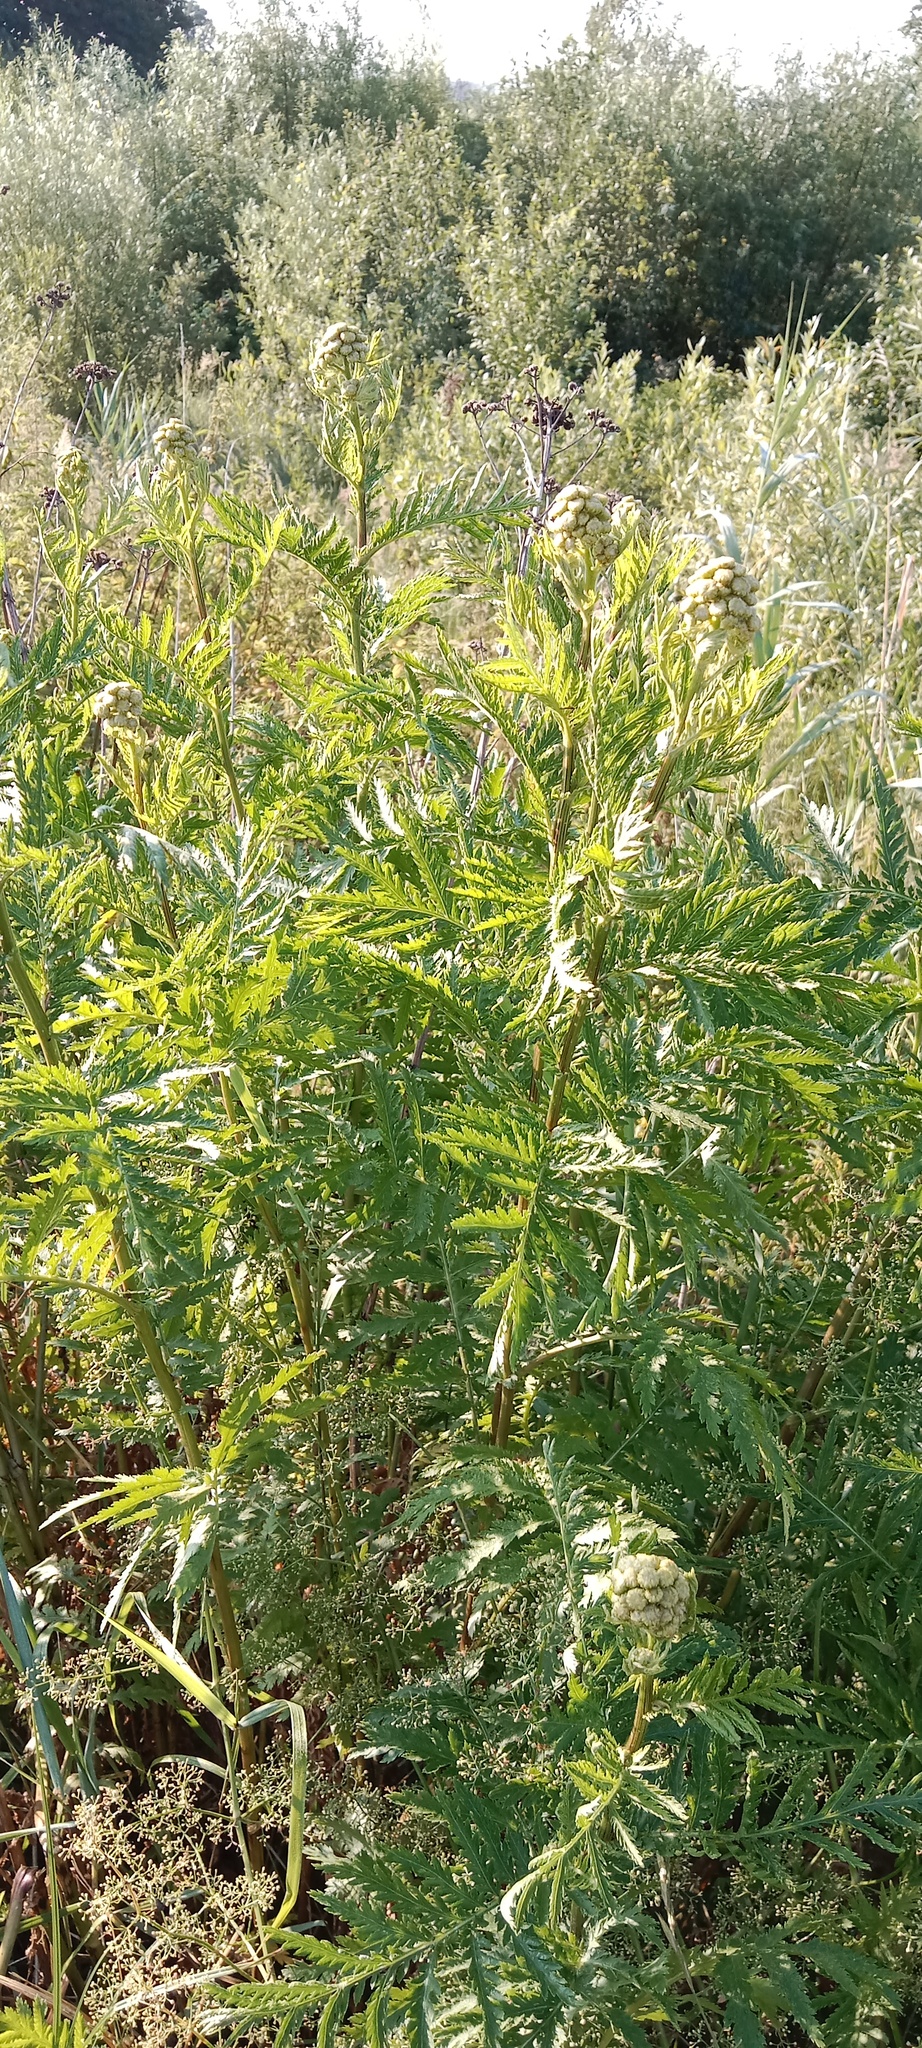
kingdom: Plantae
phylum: Tracheophyta
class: Magnoliopsida
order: Asterales
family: Asteraceae
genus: Tanacetum
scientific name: Tanacetum vulgare
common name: Common tansy
